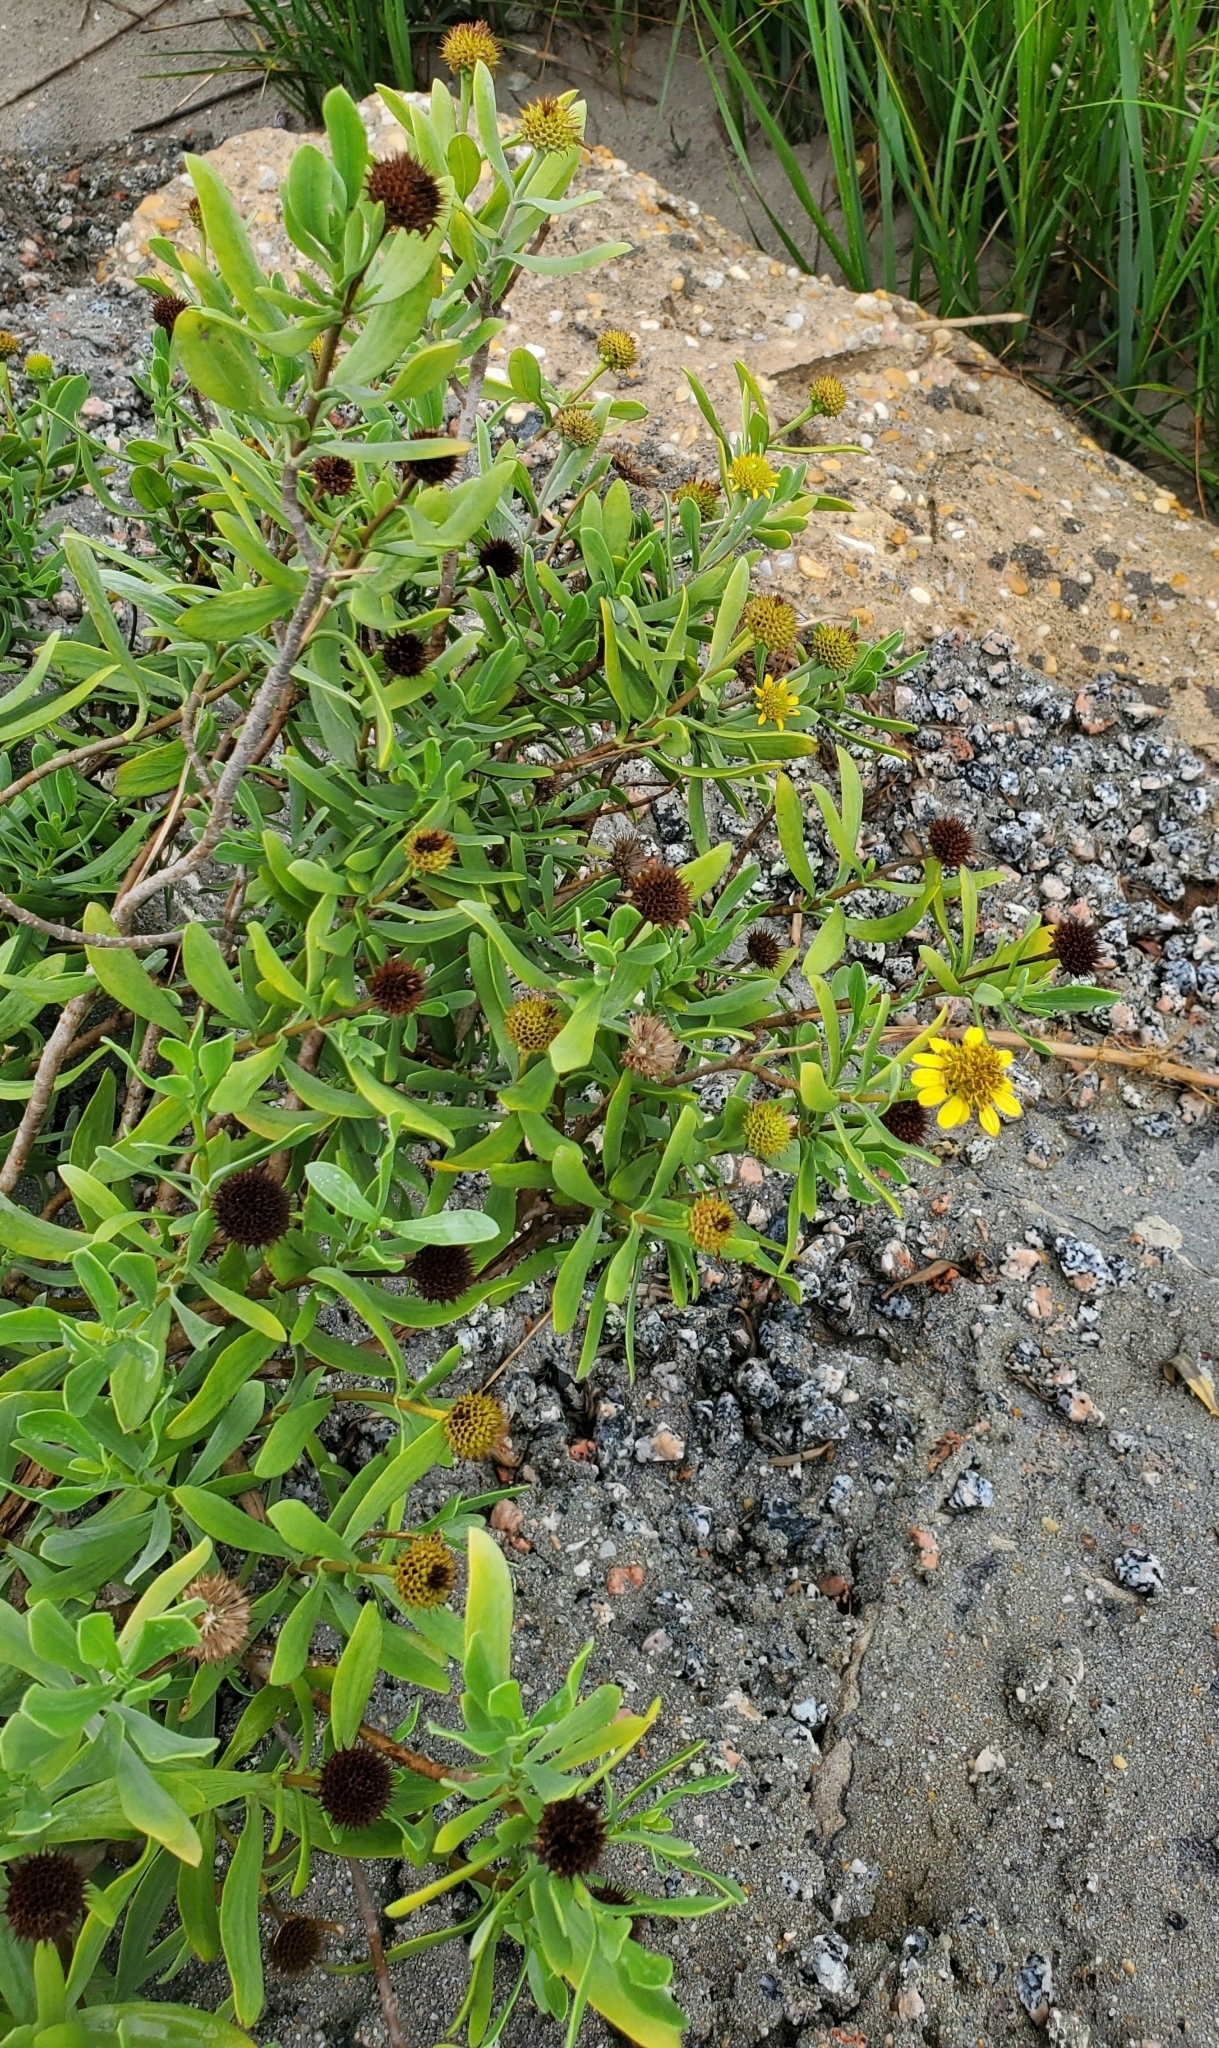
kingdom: Plantae
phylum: Tracheophyta
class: Magnoliopsida
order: Asterales
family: Asteraceae
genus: Borrichia
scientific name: Borrichia frutescens
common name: Sea oxeye
